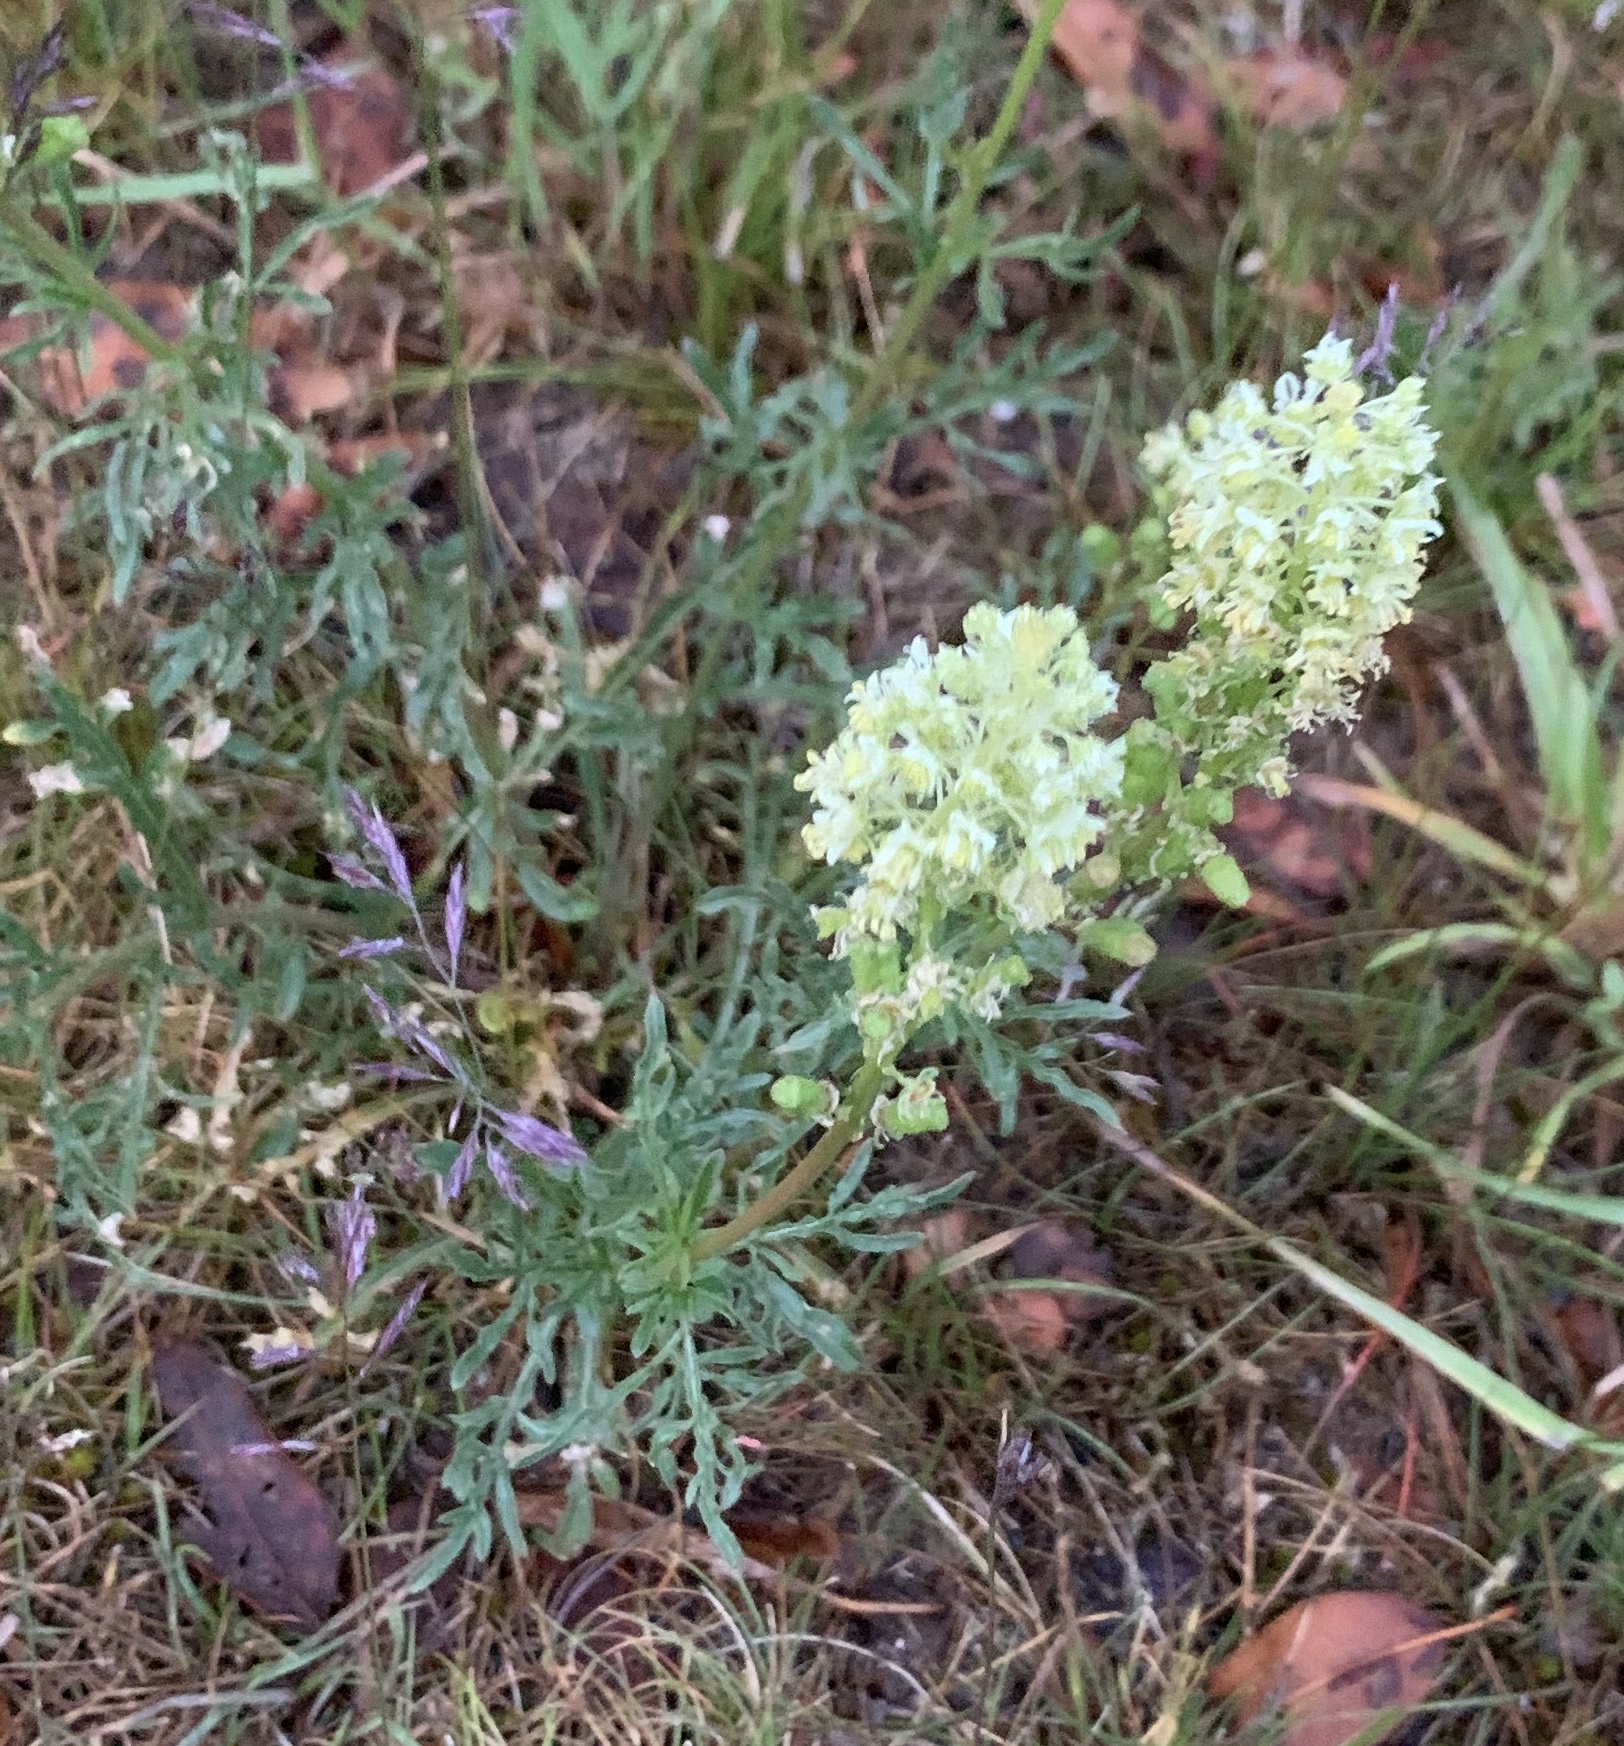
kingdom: Plantae
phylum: Tracheophyta
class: Magnoliopsida
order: Brassicales
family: Resedaceae
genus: Reseda
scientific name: Reseda lutea
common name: Wild mignonette
